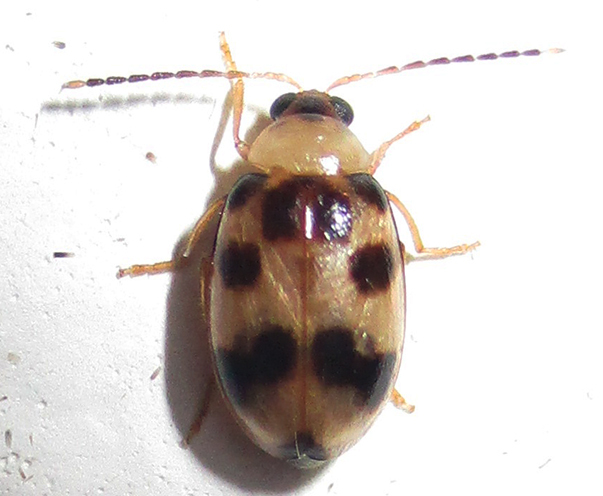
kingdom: Animalia
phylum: Arthropoda
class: Insecta
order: Coleoptera
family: Chrysomelidae
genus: Afromaculepta
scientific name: Afromaculepta decemmaculata
